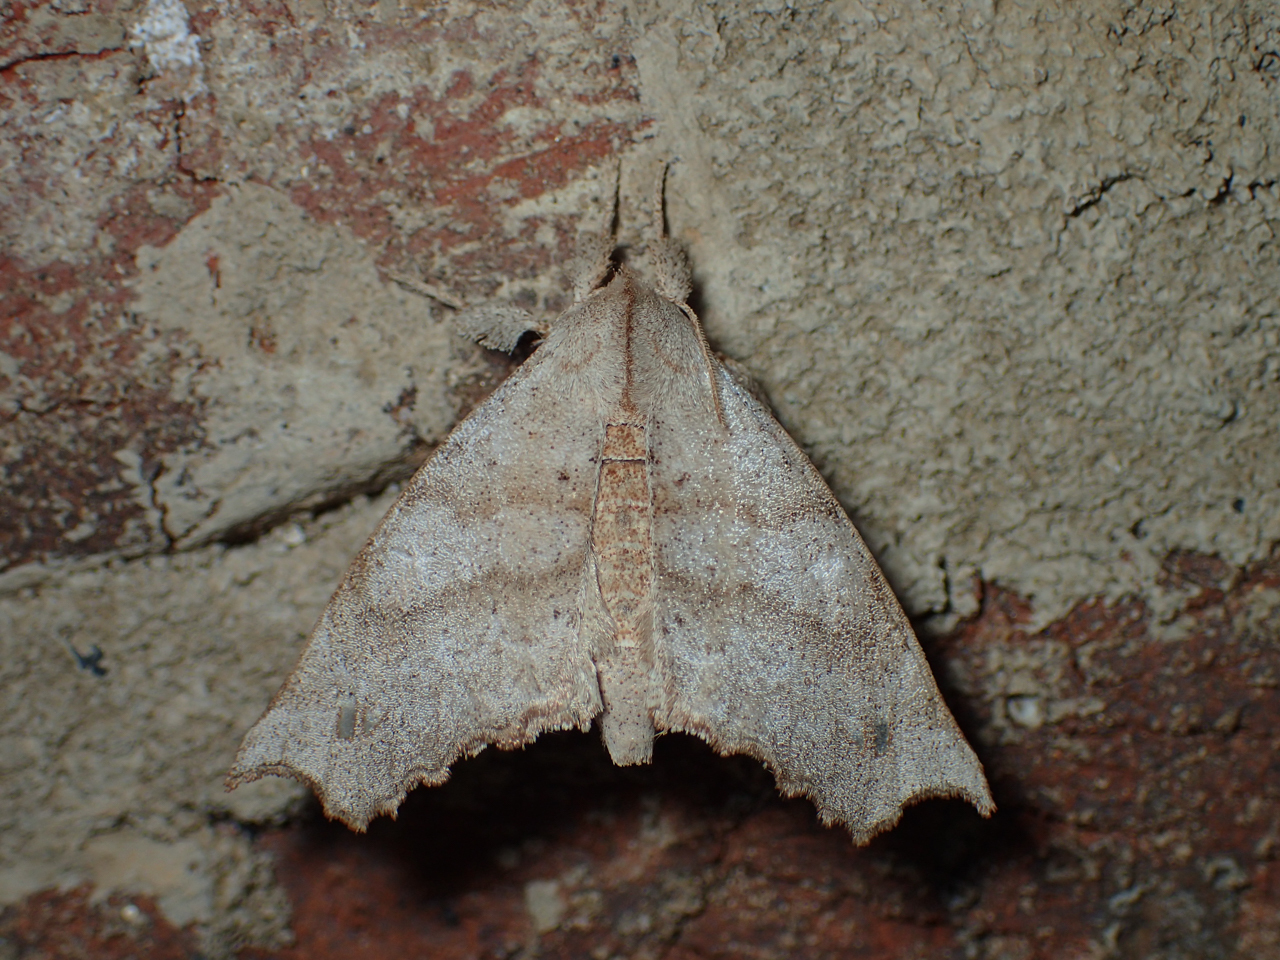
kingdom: Animalia
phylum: Arthropoda
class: Insecta
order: Lepidoptera
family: Apatelodidae
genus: Olceclostera
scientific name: Olceclostera angelica
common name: Angel moth
